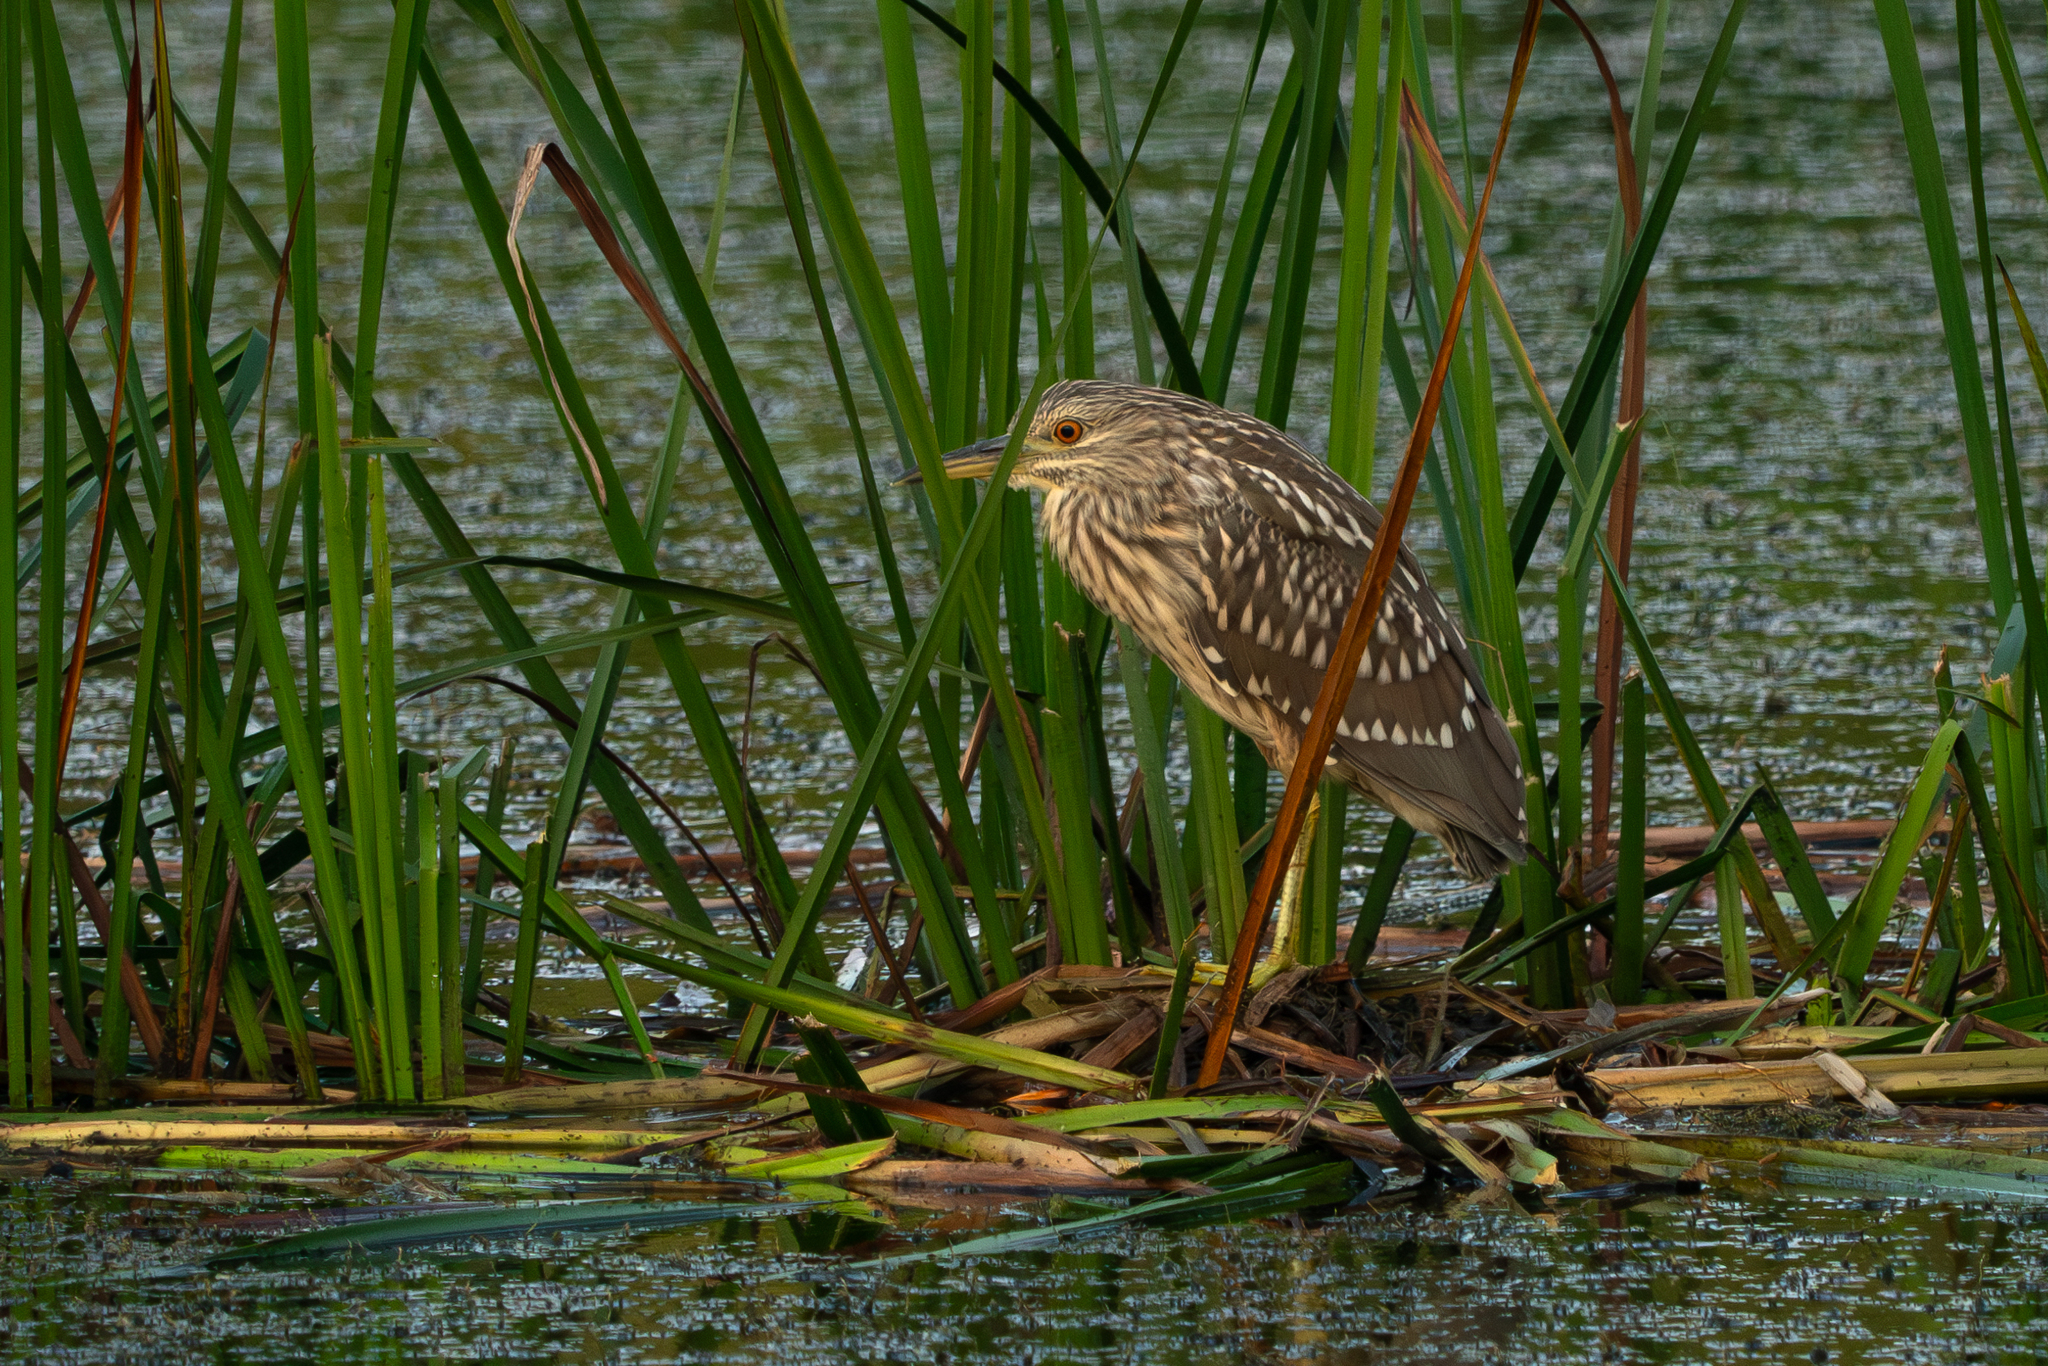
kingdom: Animalia
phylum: Chordata
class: Aves
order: Pelecaniformes
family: Ardeidae
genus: Nycticorax
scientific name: Nycticorax nycticorax
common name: Black-crowned night heron
